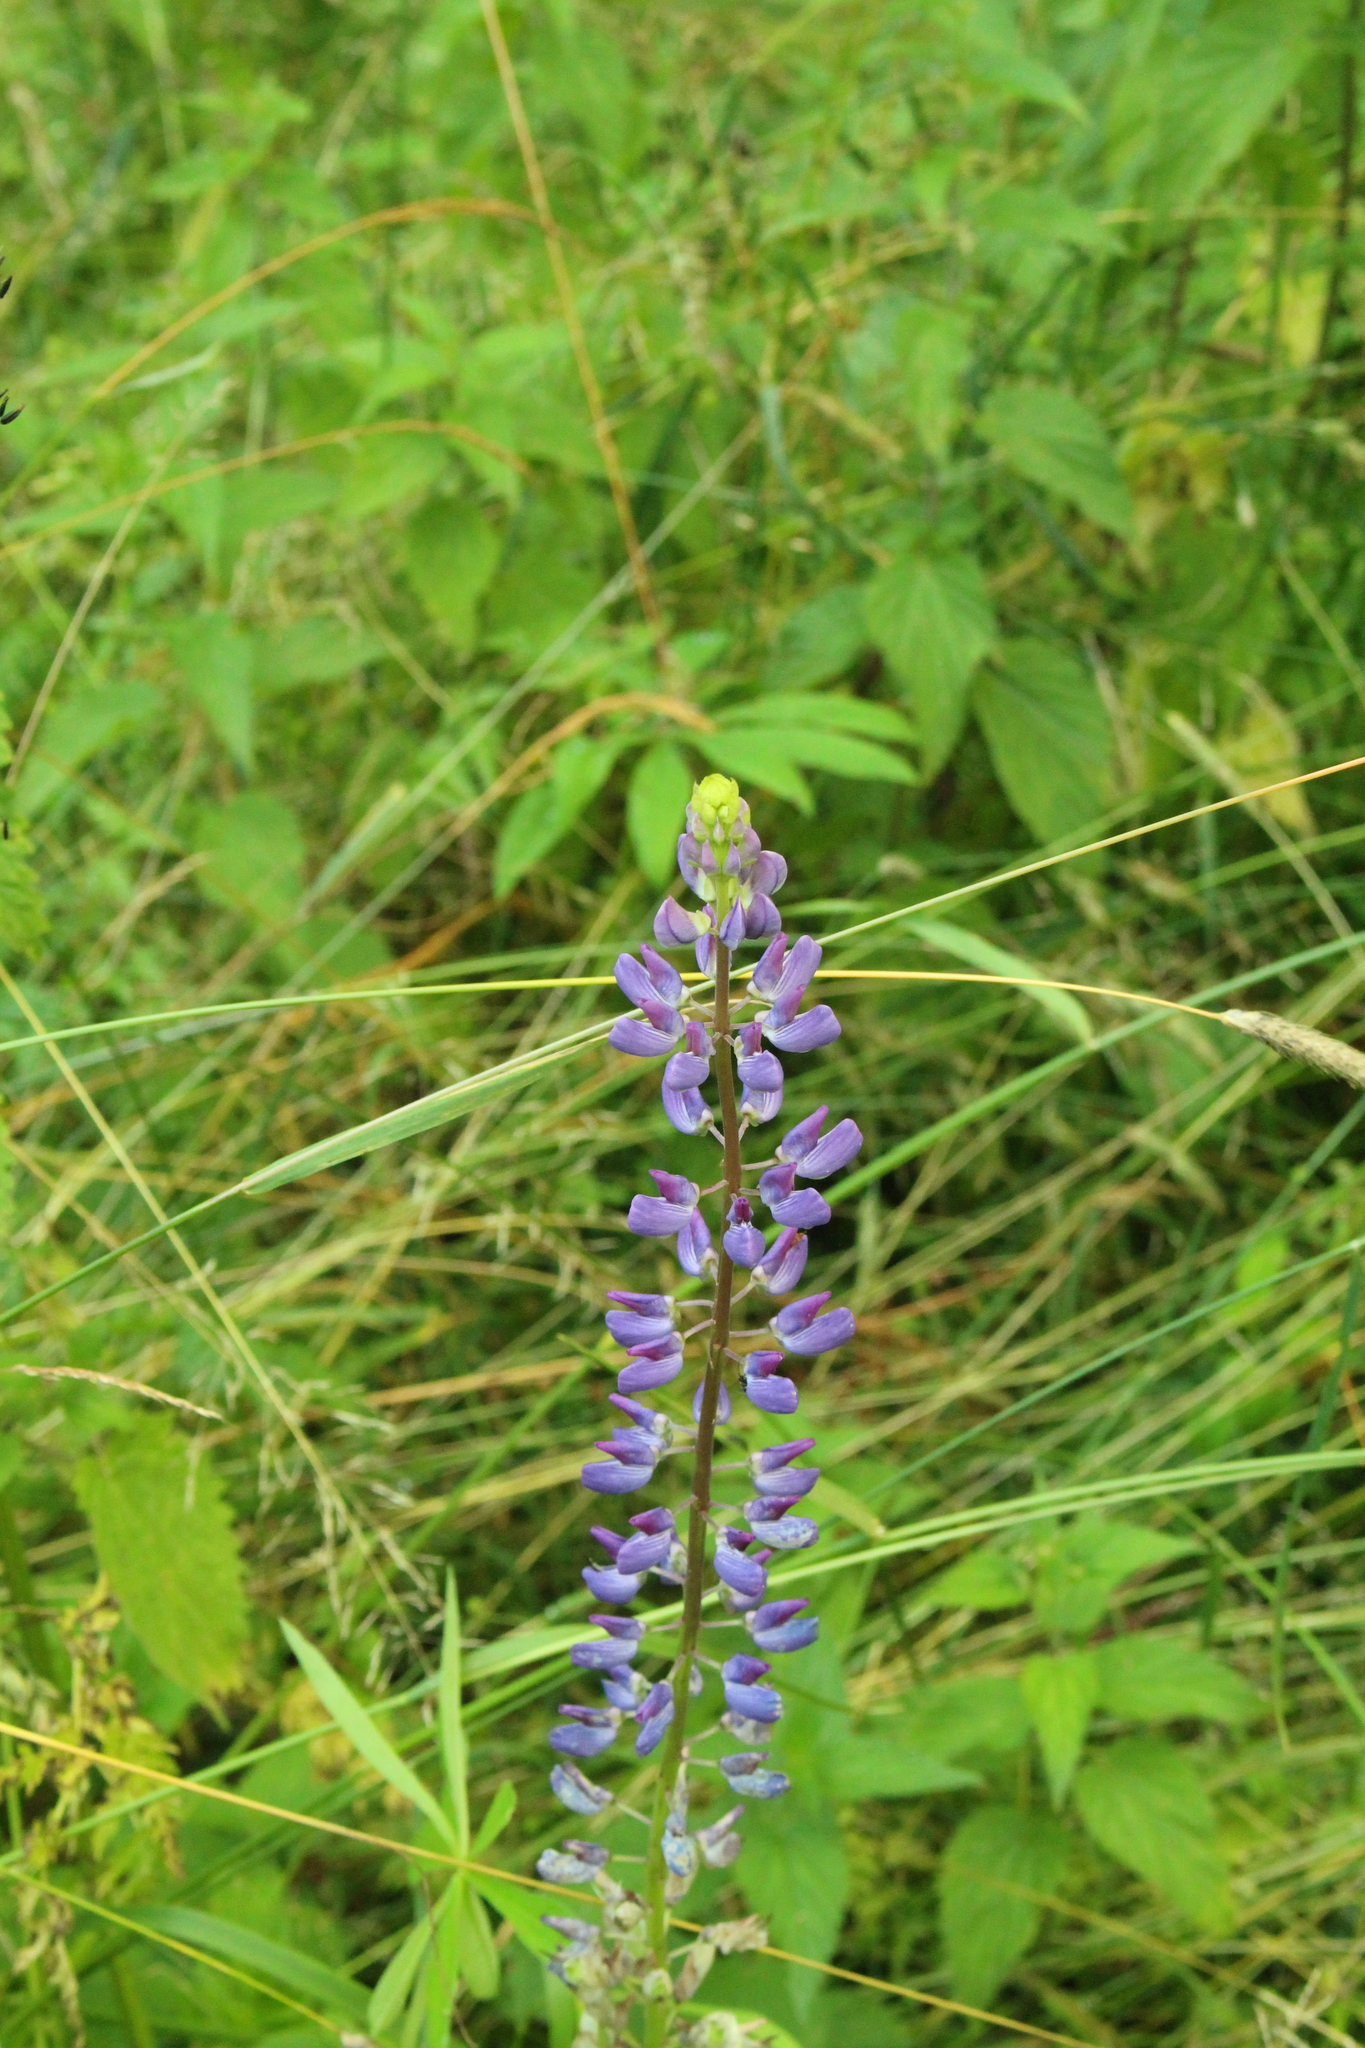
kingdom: Plantae
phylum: Tracheophyta
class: Magnoliopsida
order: Fabales
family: Fabaceae
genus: Lupinus
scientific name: Lupinus polyphyllus
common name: Garden lupin
